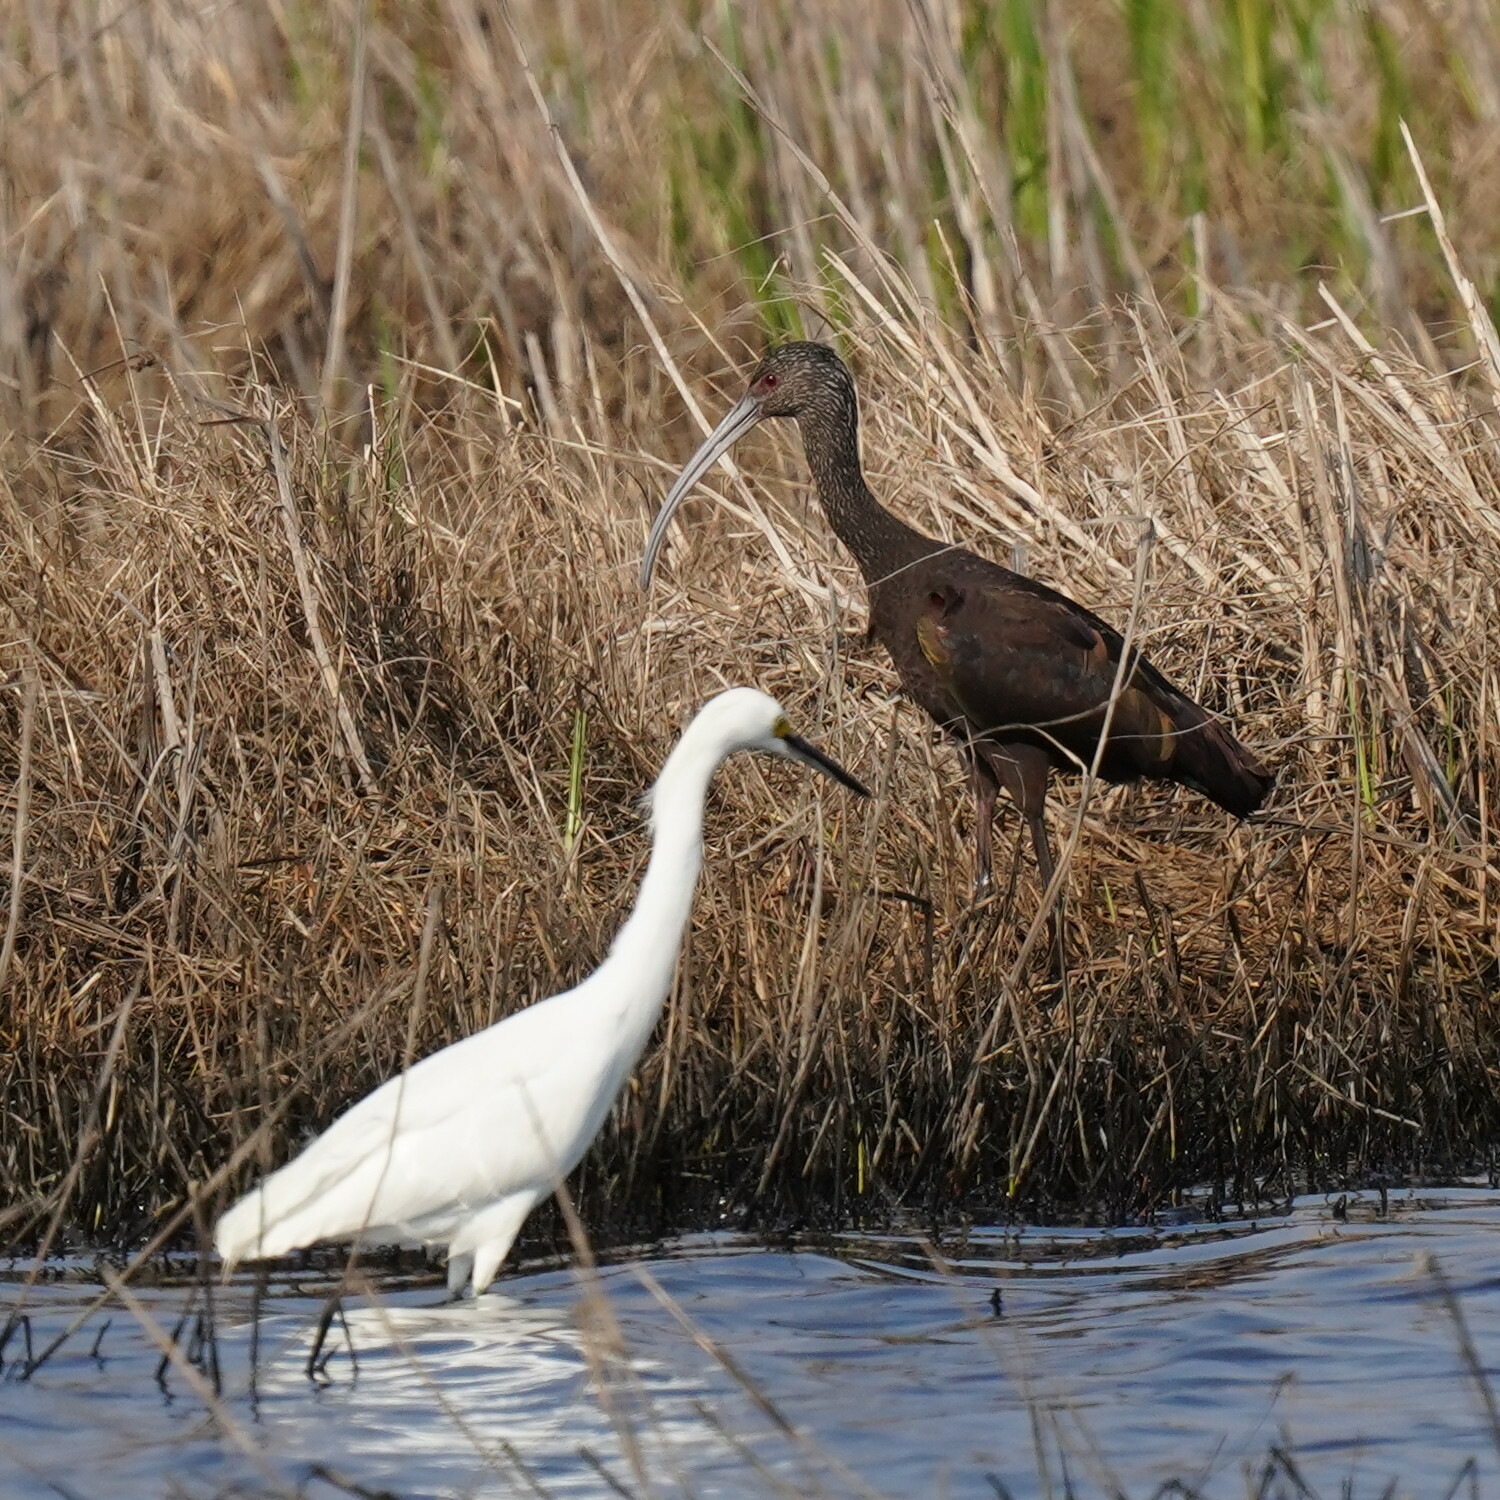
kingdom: Animalia
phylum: Chordata
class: Aves
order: Pelecaniformes
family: Threskiornithidae
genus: Plegadis
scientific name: Plegadis chihi
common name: White-faced ibis
